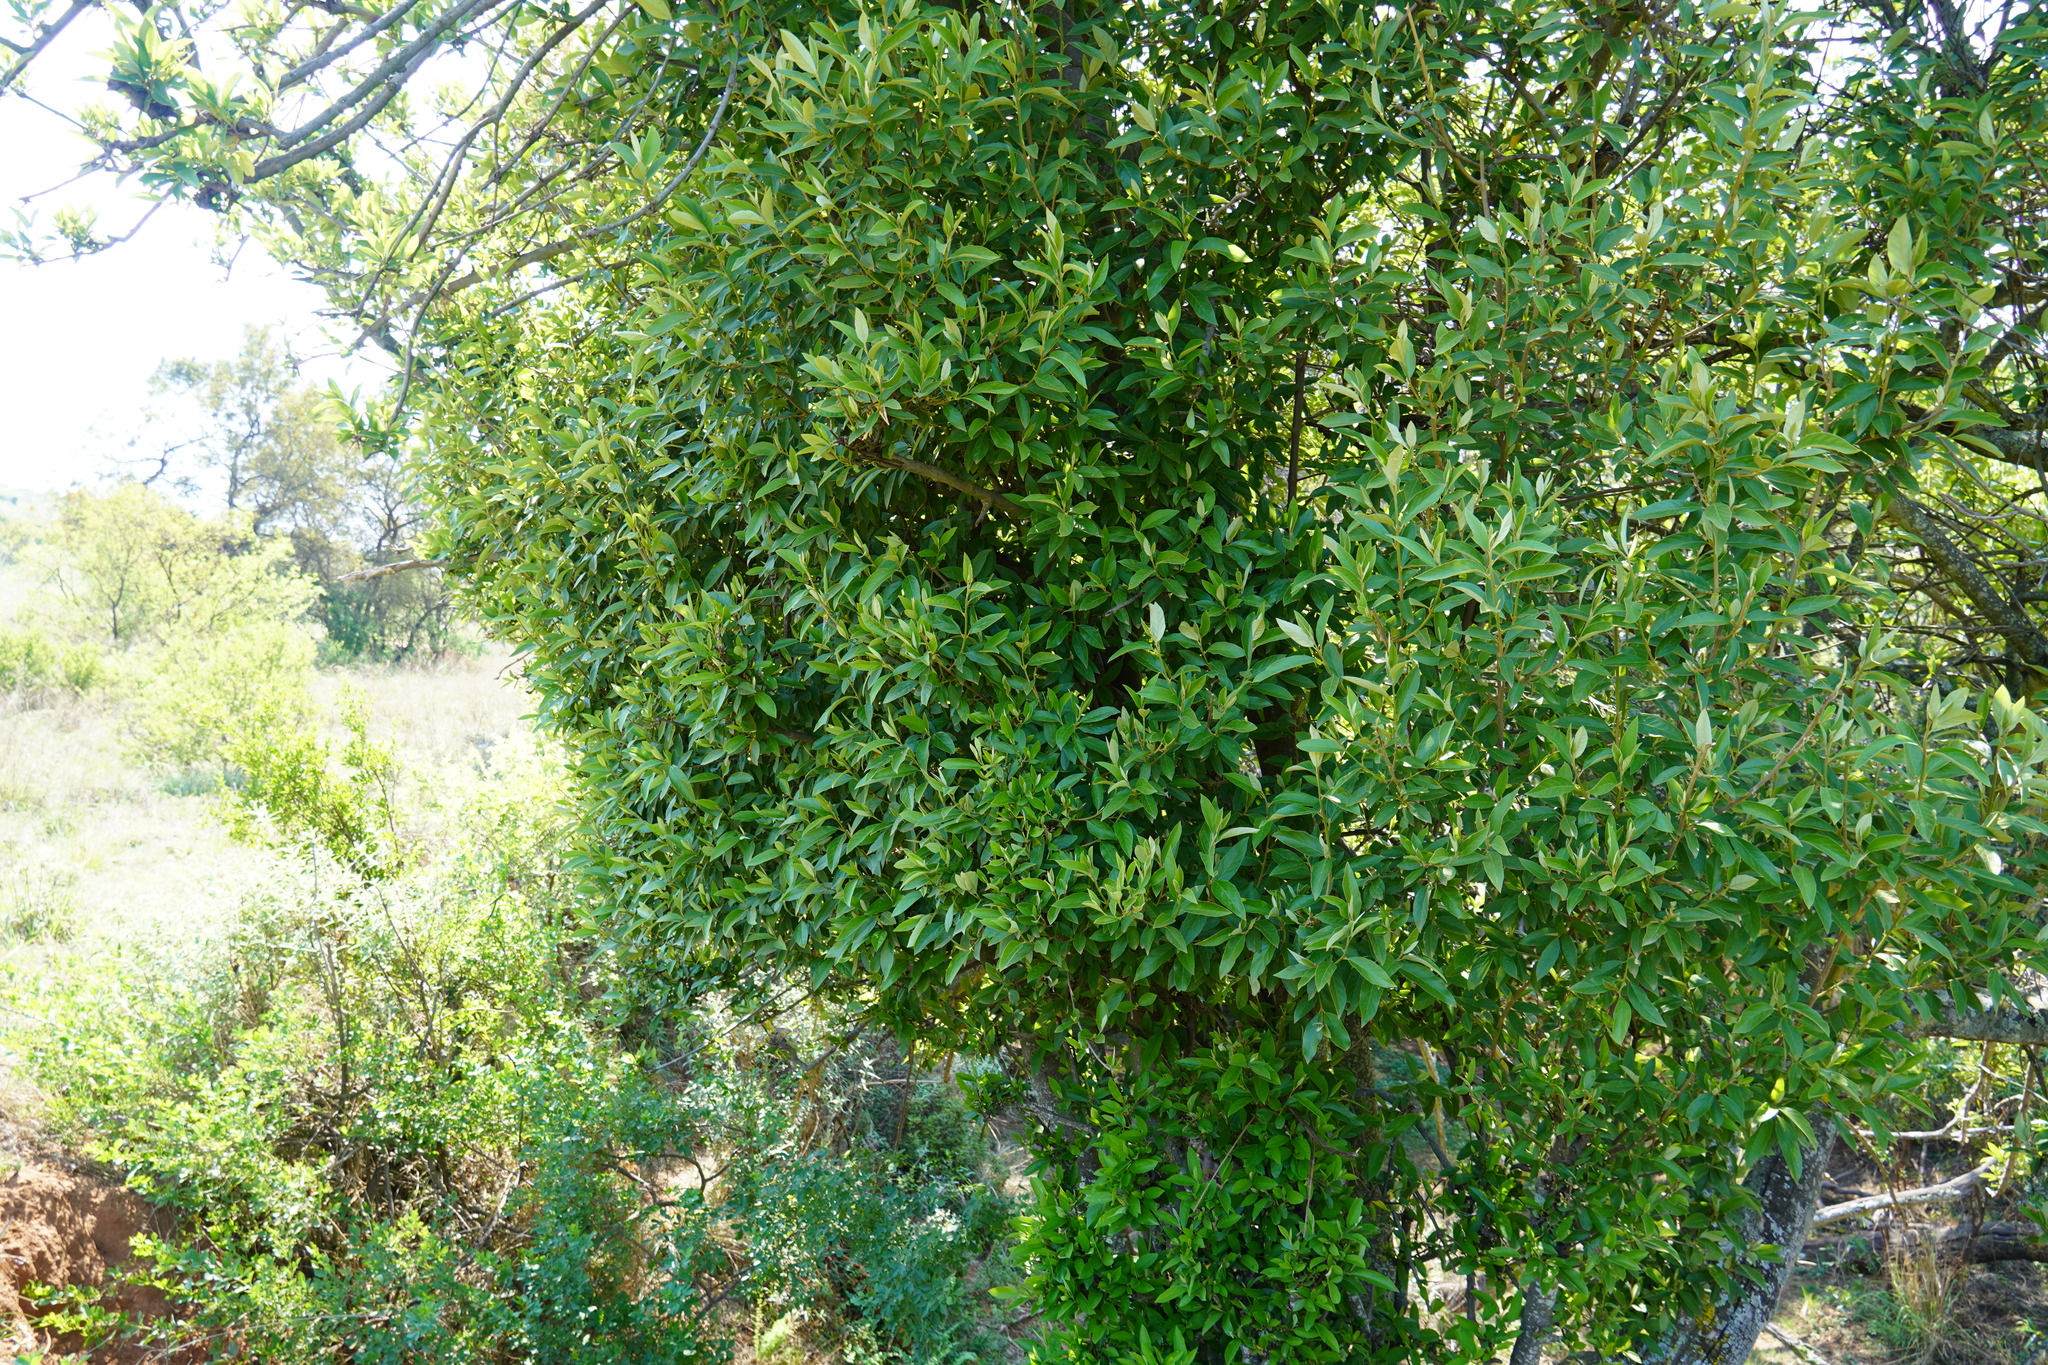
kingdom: Plantae
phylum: Tracheophyta
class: Magnoliopsida
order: Malpighiales
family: Achariaceae
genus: Kiggelaria
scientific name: Kiggelaria africana
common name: Wild peach
